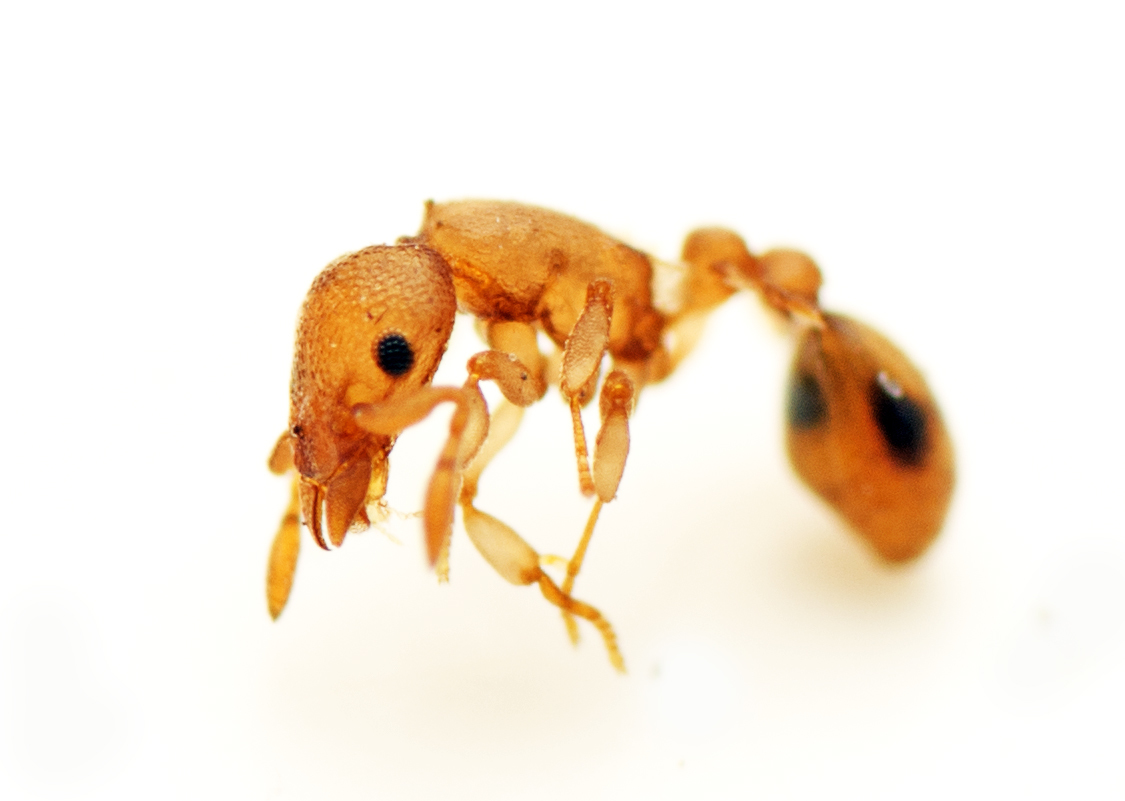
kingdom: Animalia
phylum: Arthropoda
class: Insecta
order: Hymenoptera
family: Formicidae
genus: Colobostruma
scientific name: Colobostruma
